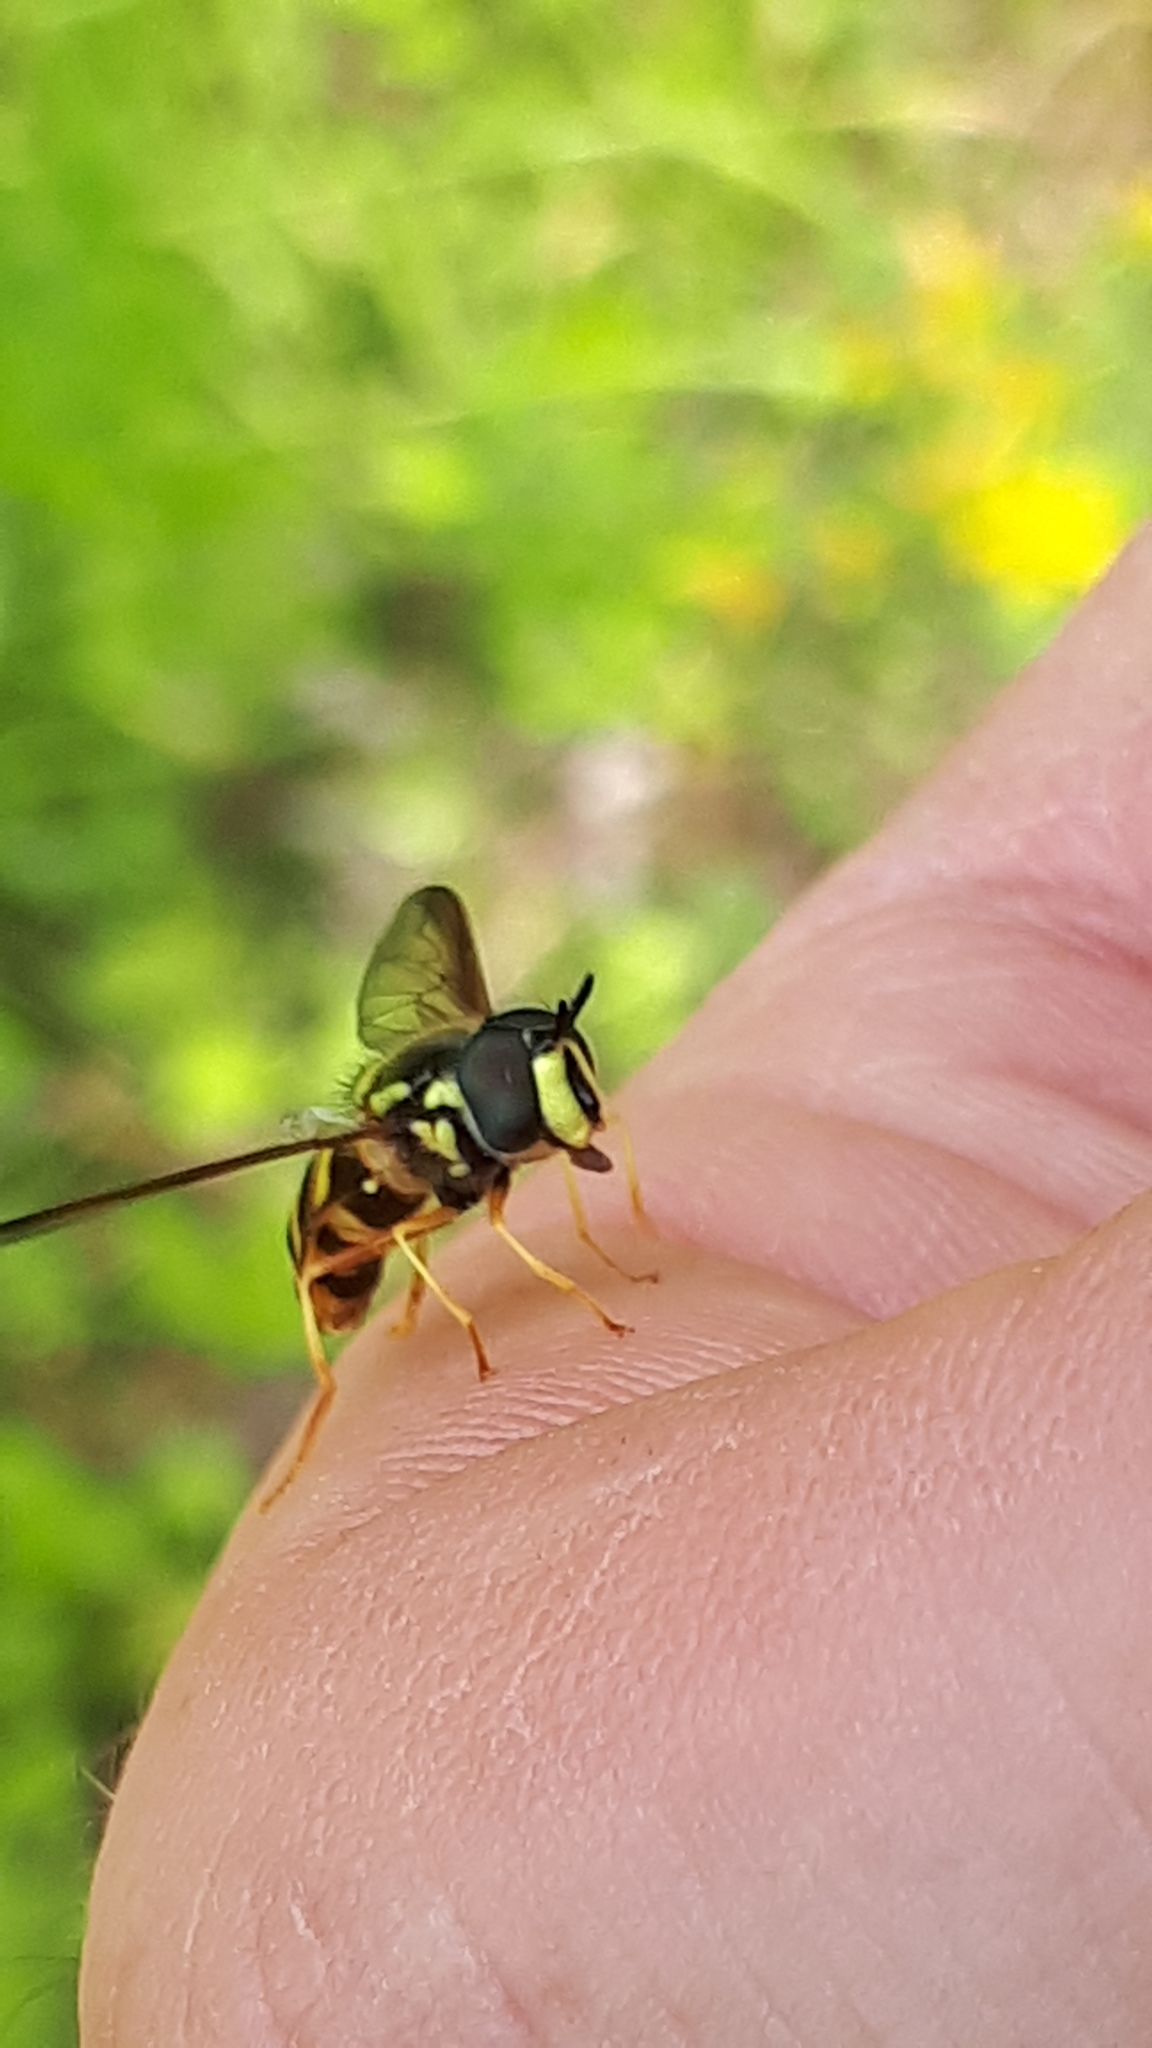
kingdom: Animalia
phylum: Arthropoda
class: Insecta
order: Diptera
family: Syrphidae
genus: Chrysotoxum
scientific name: Chrysotoxum intermedium
